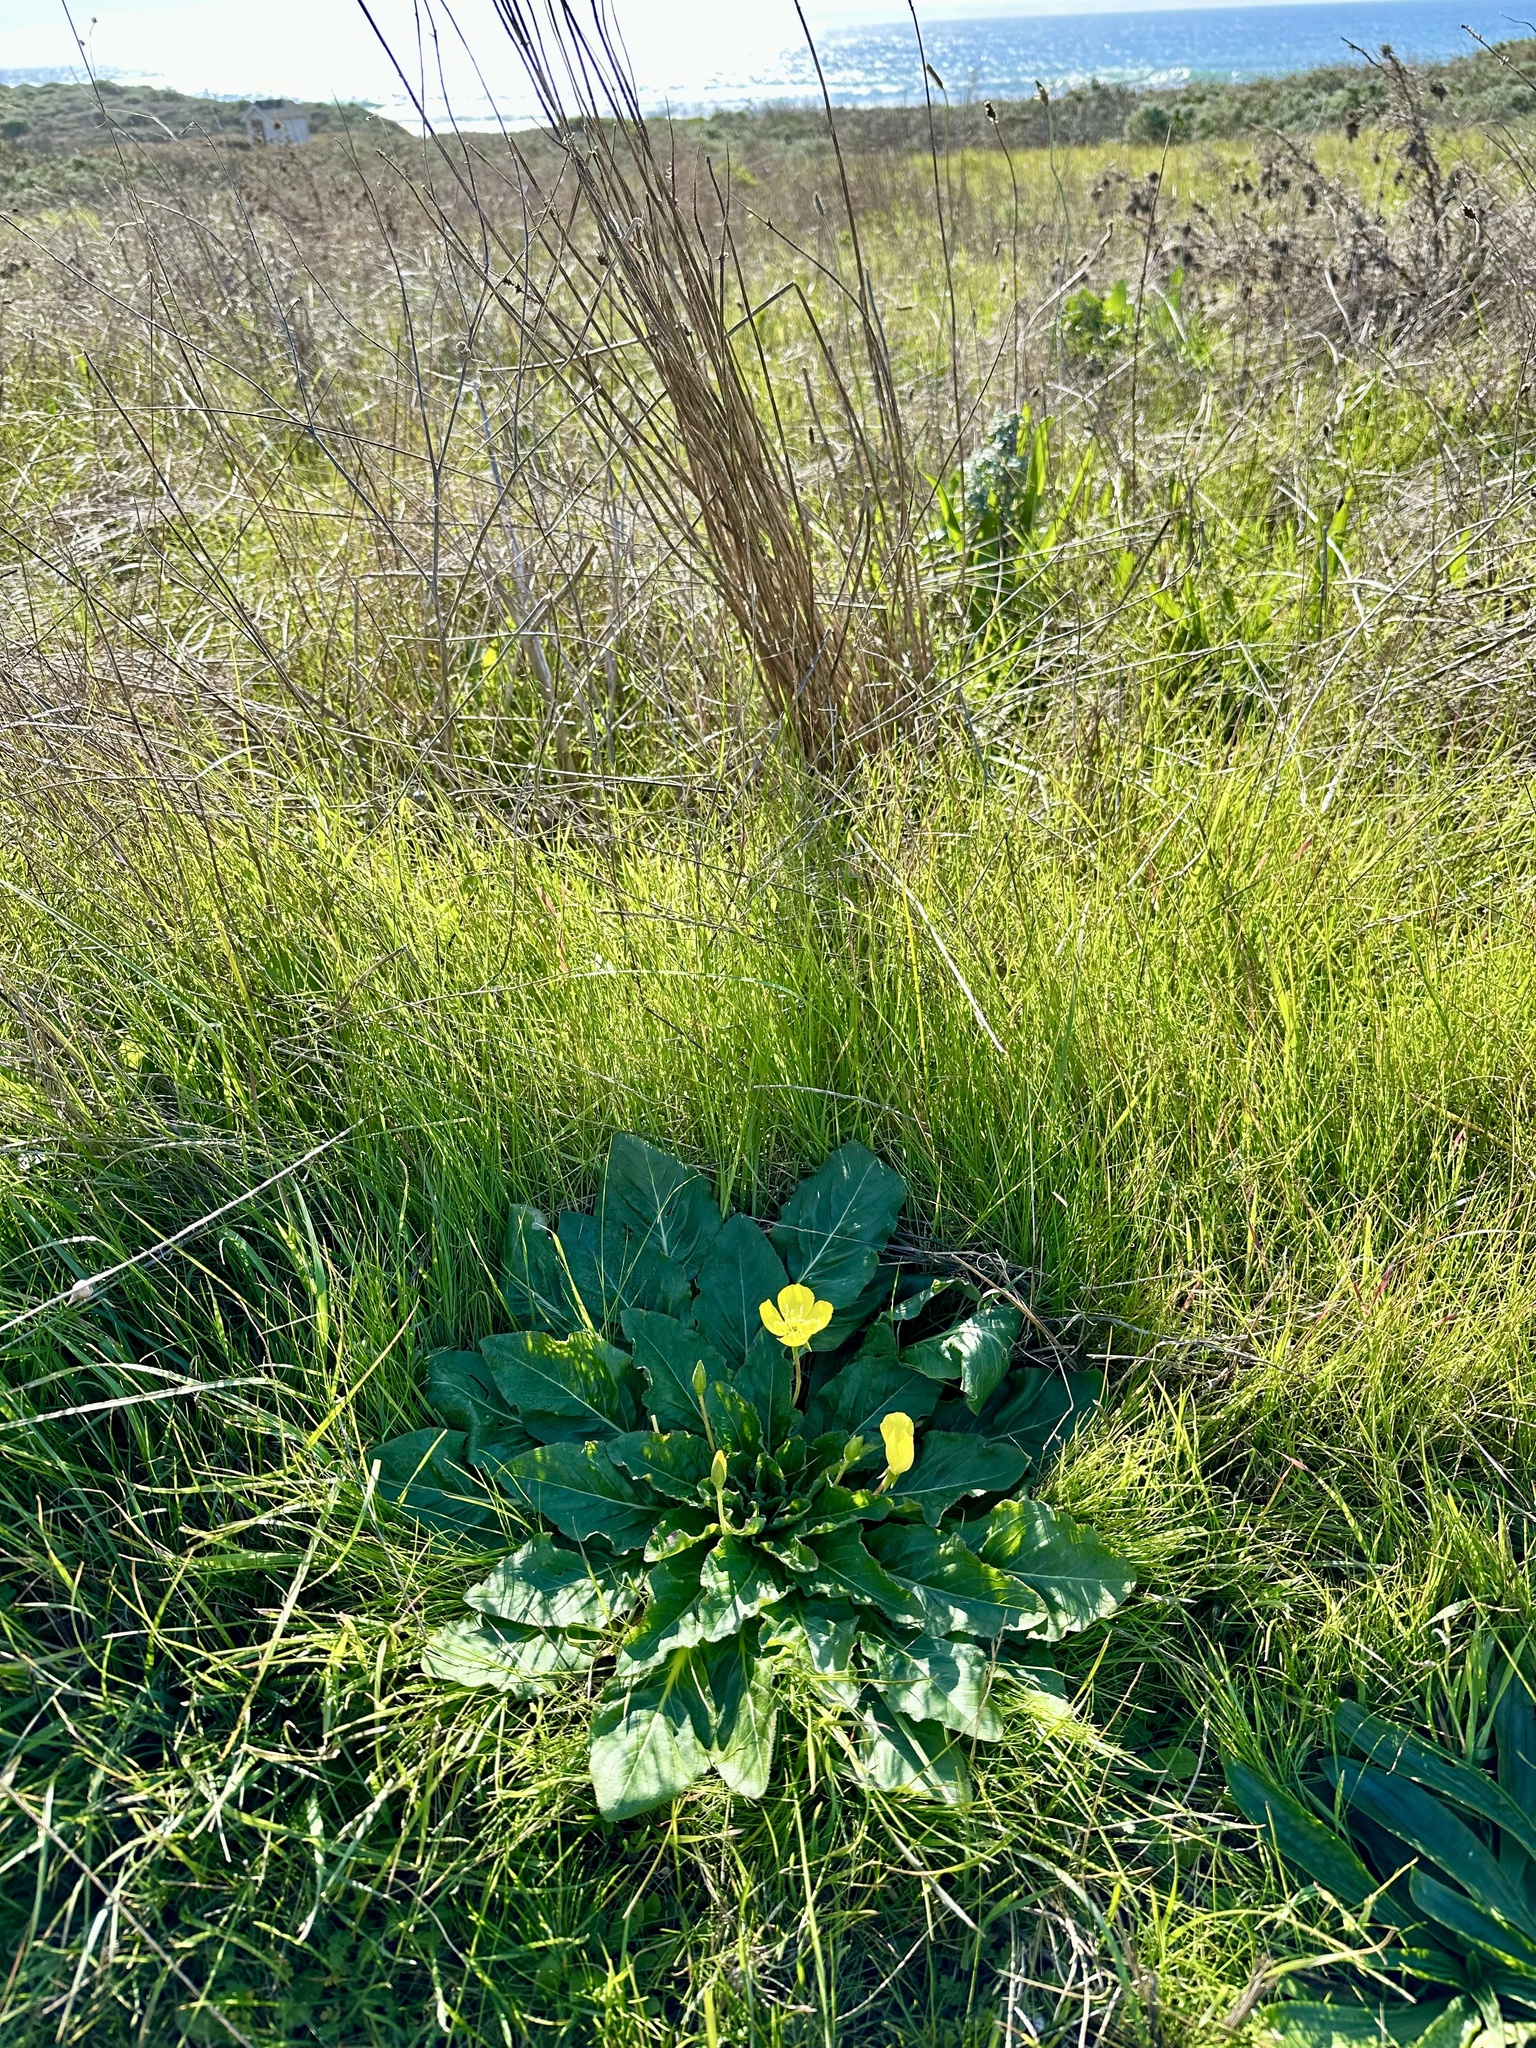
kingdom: Plantae
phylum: Tracheophyta
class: Magnoliopsida
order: Myrtales
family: Onagraceae
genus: Taraxia
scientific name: Taraxia ovata
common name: Goldeneggs
